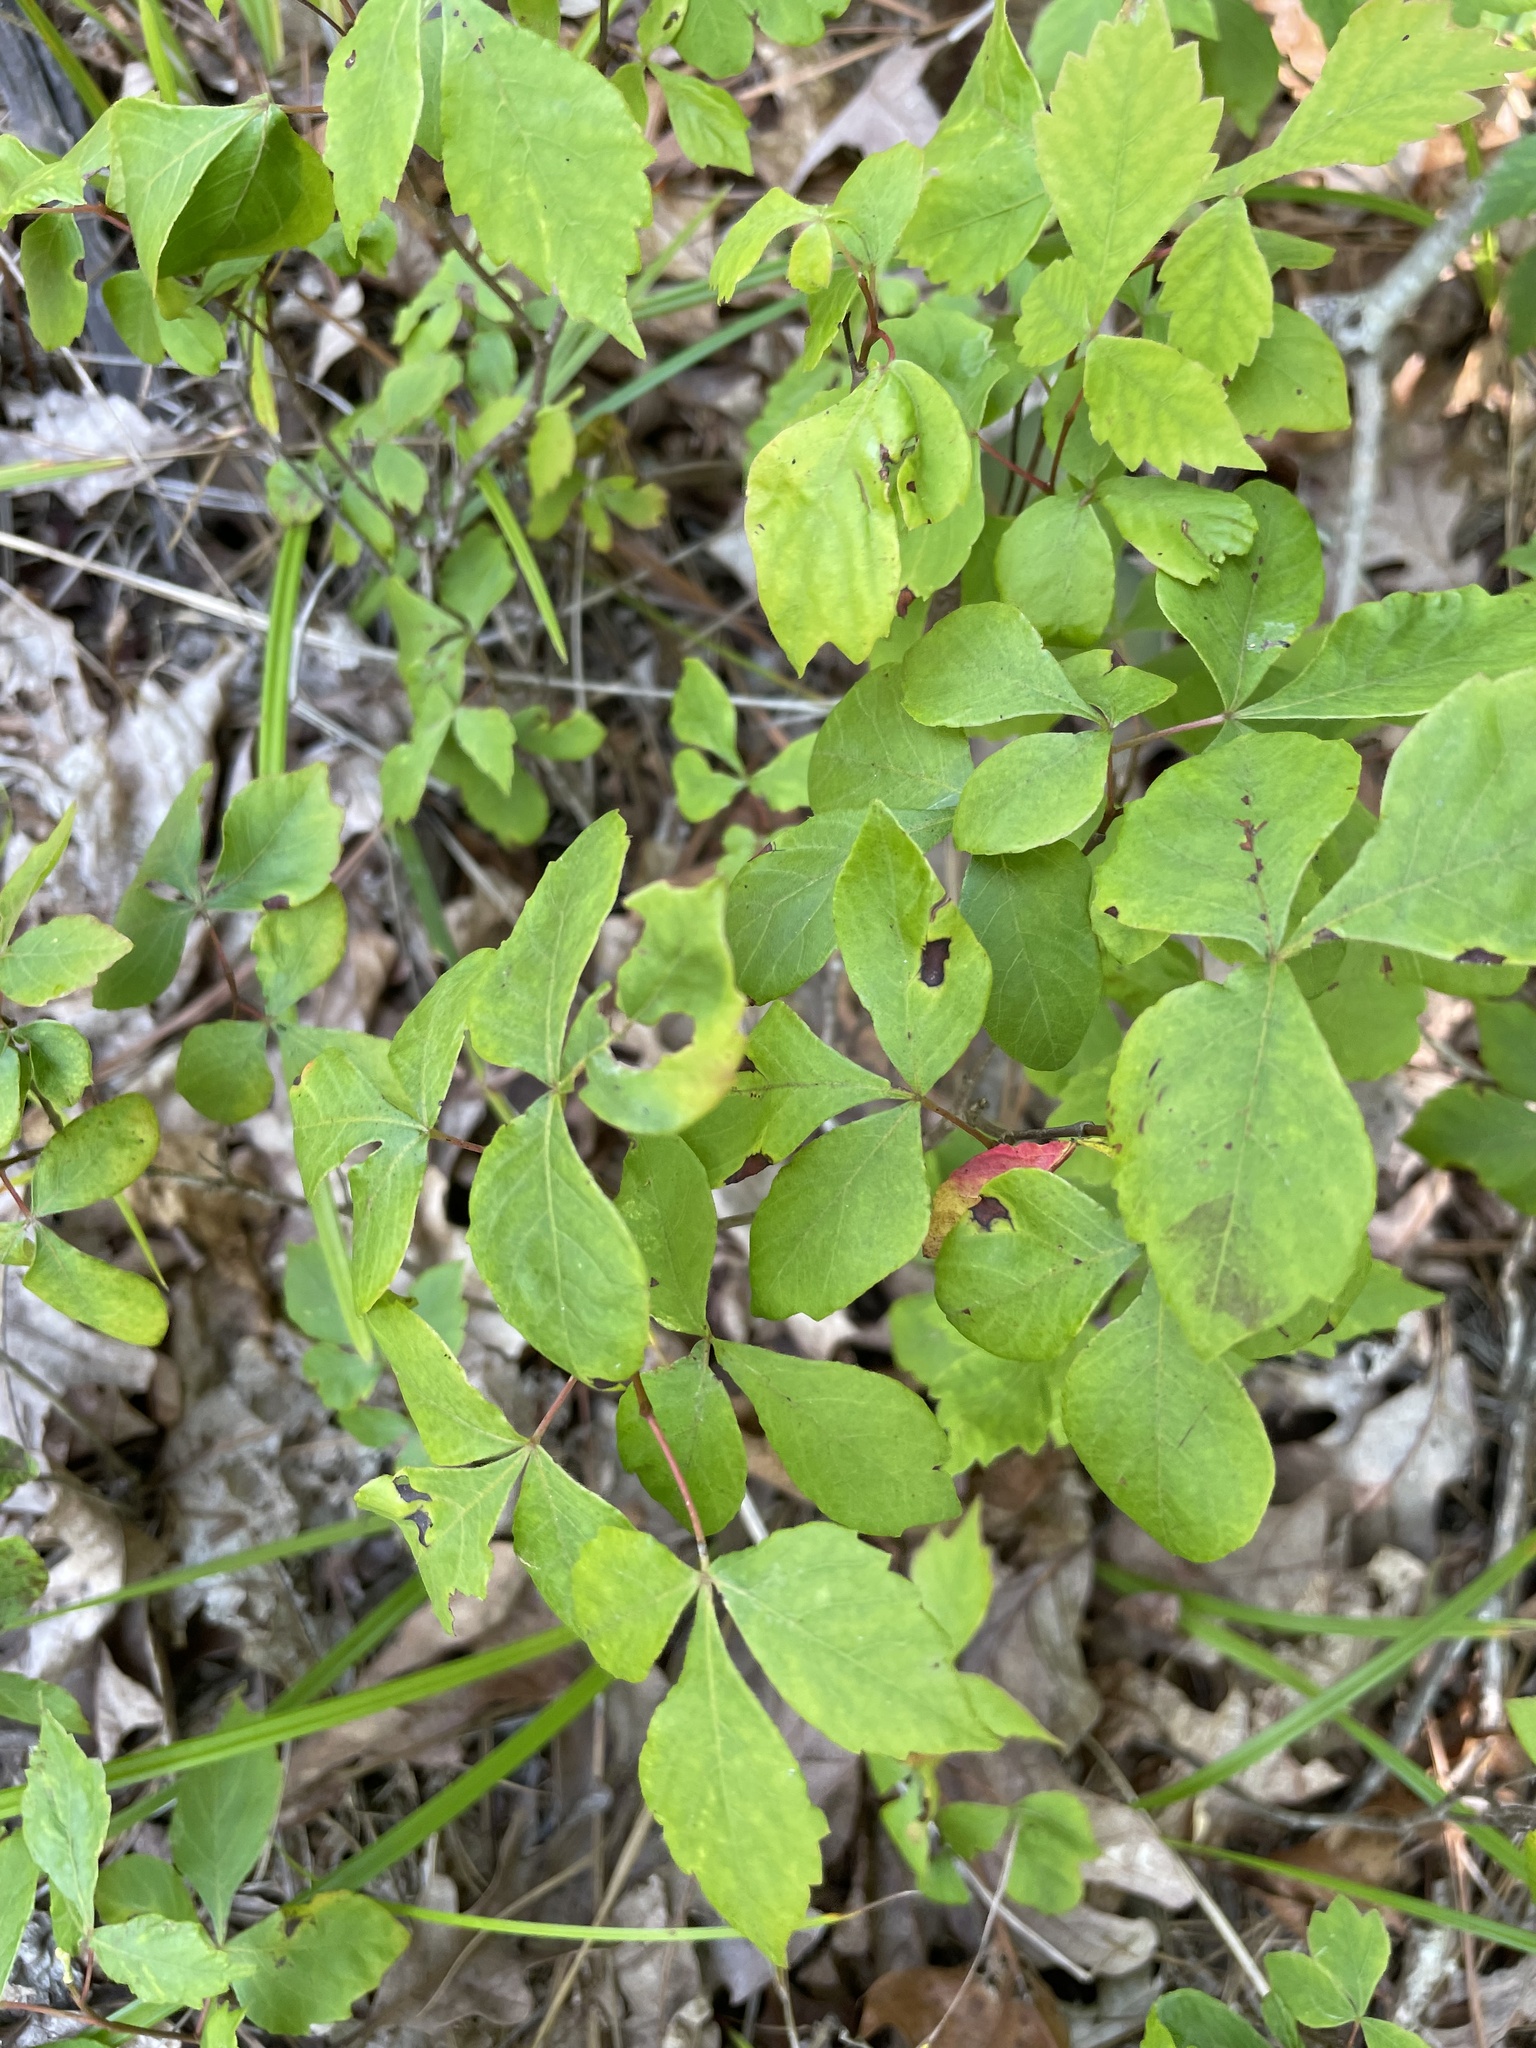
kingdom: Plantae
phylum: Tracheophyta
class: Magnoliopsida
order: Sapindales
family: Anacardiaceae
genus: Rhus
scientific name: Rhus aromatica
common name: Aromatic sumac
